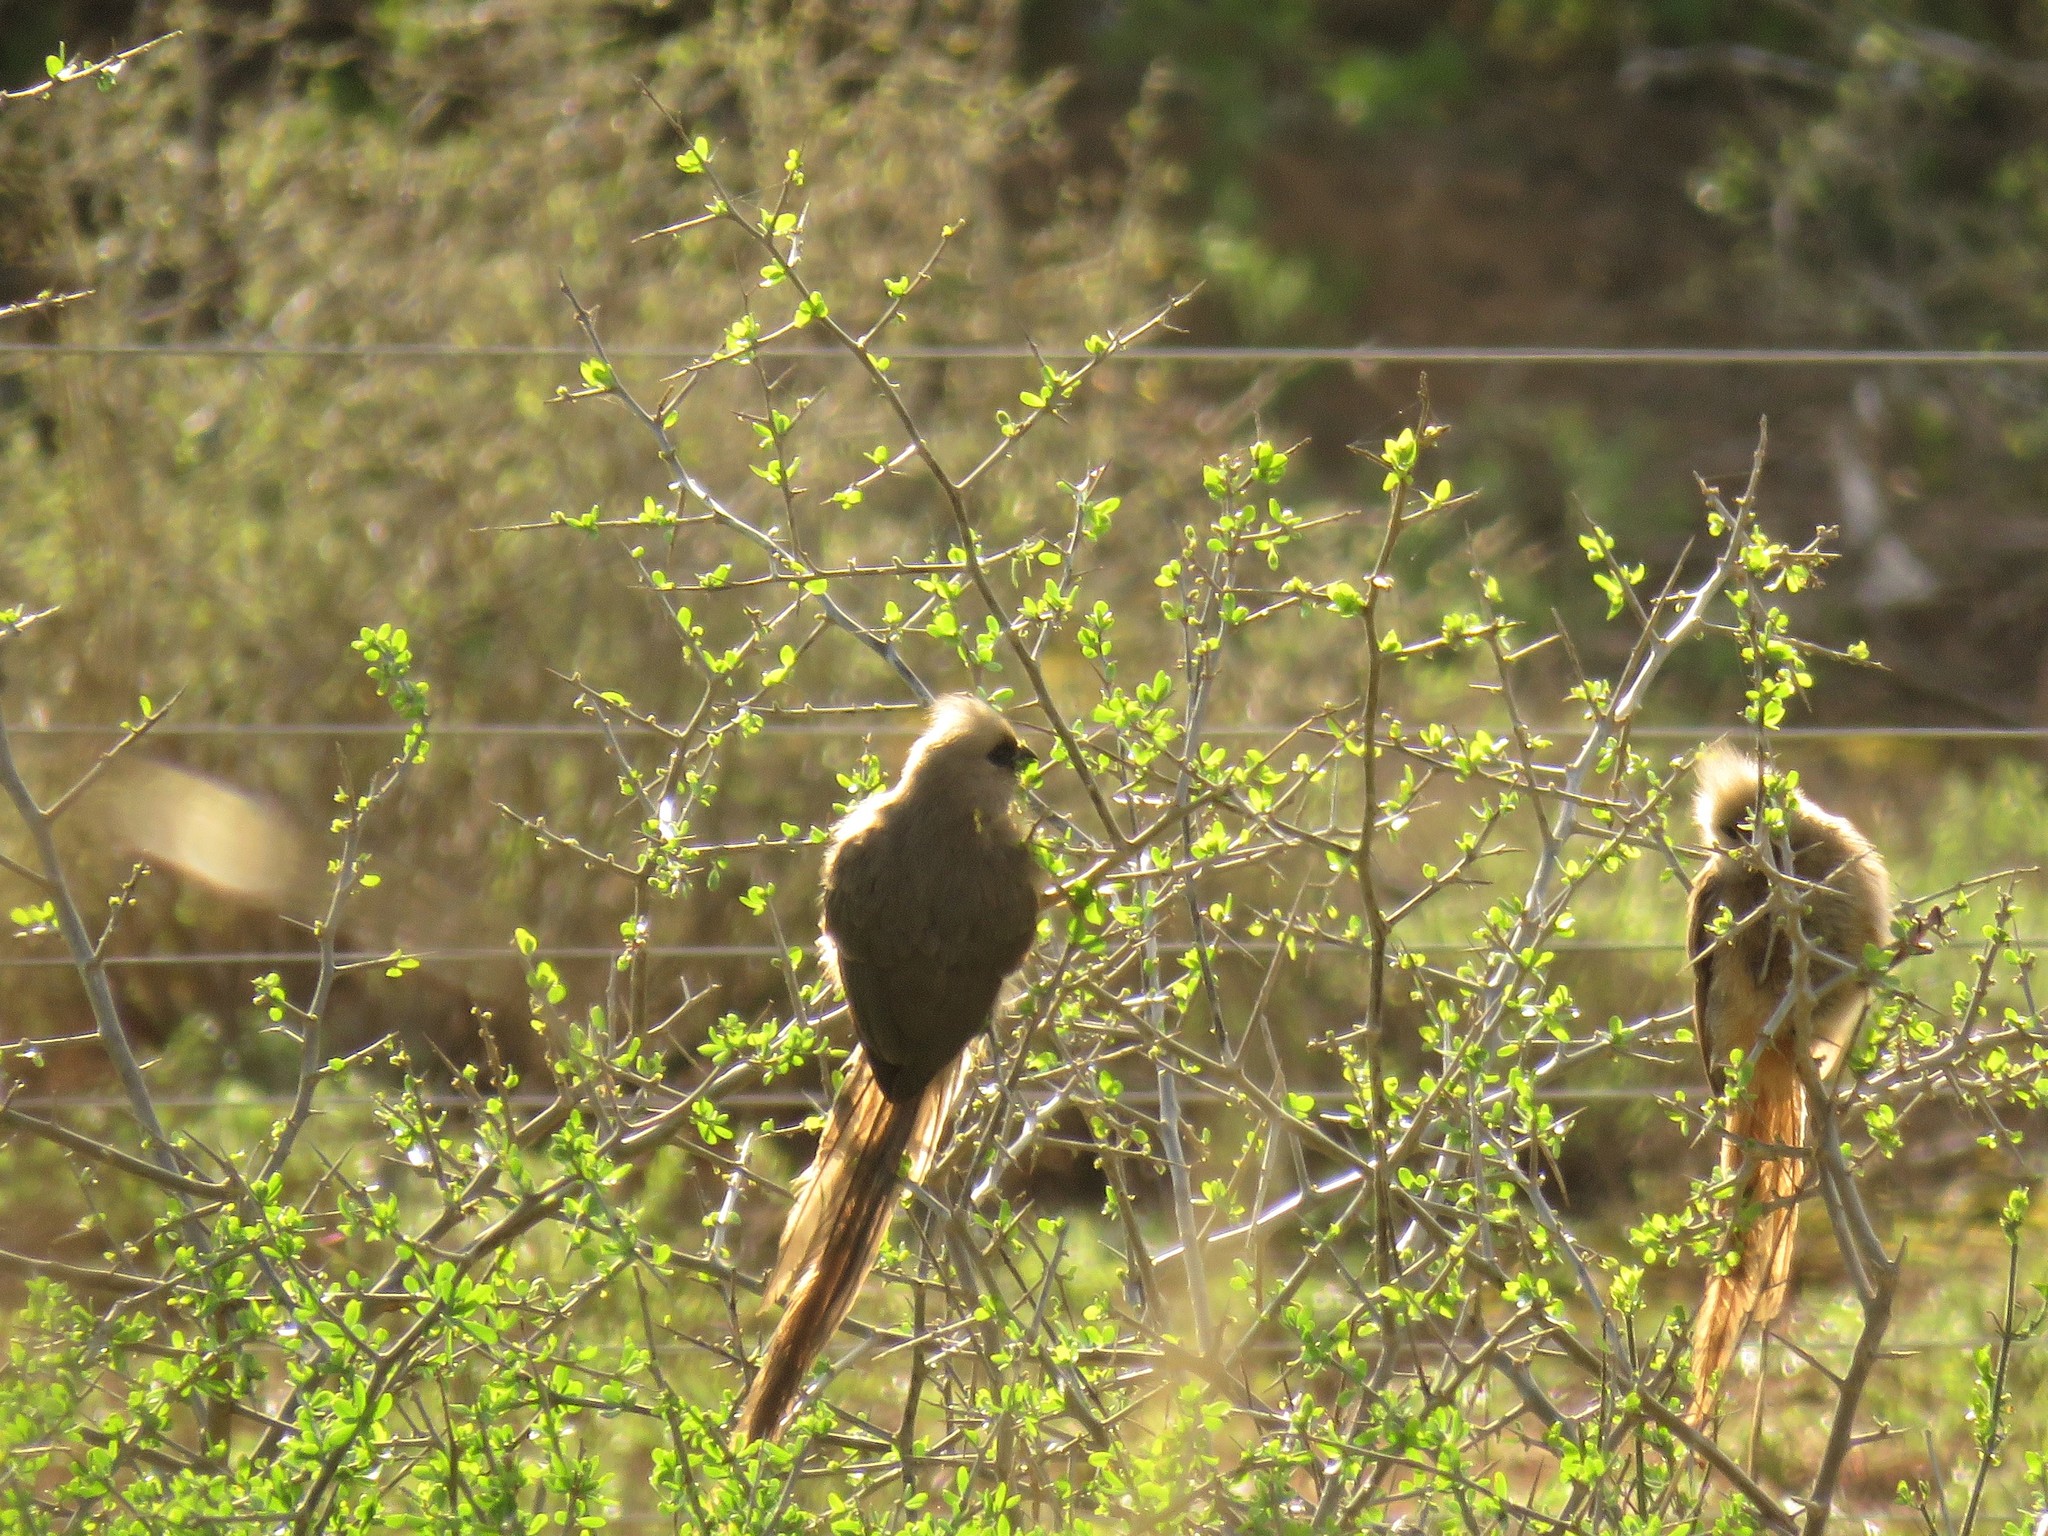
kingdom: Animalia
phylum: Chordata
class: Aves
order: Coliiformes
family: Coliidae
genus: Colius
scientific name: Colius striatus
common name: Speckled mousebird
